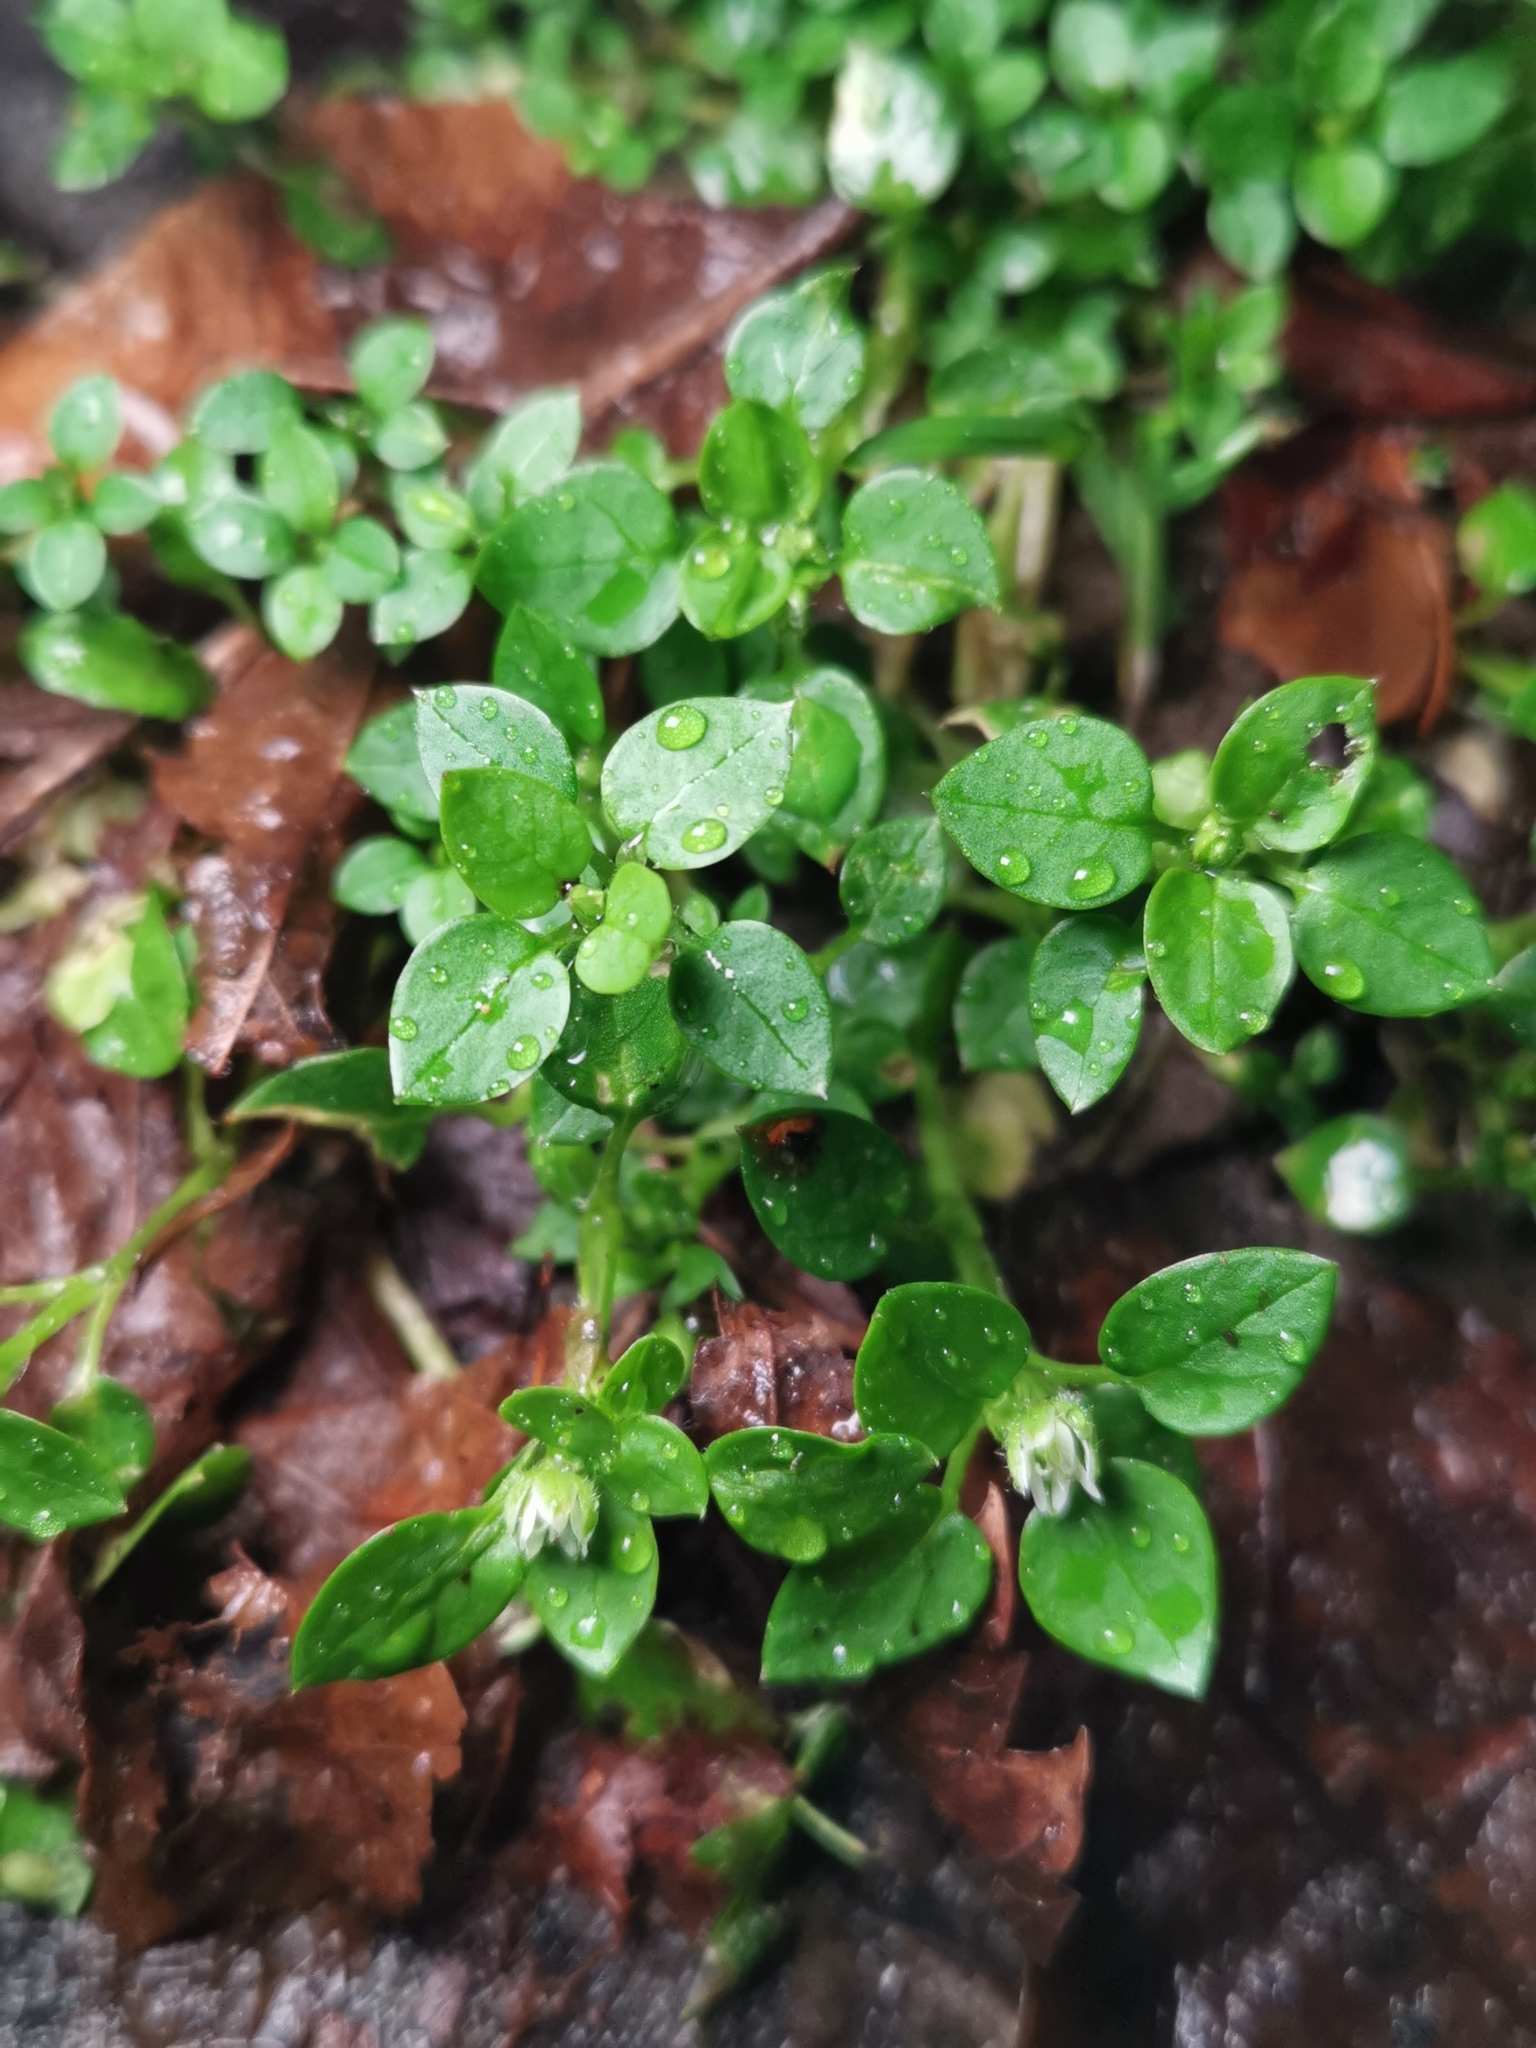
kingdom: Plantae
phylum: Tracheophyta
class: Magnoliopsida
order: Caryophyllales
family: Caryophyllaceae
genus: Stellaria
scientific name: Stellaria media
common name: Common chickweed
